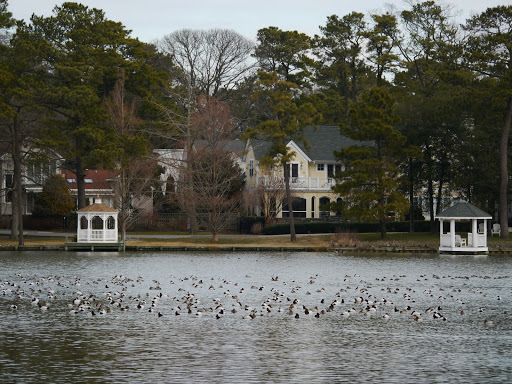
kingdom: Animalia
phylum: Chordata
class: Aves
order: Anseriformes
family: Anatidae
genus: Aythya
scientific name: Aythya valisineria
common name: Canvasback
